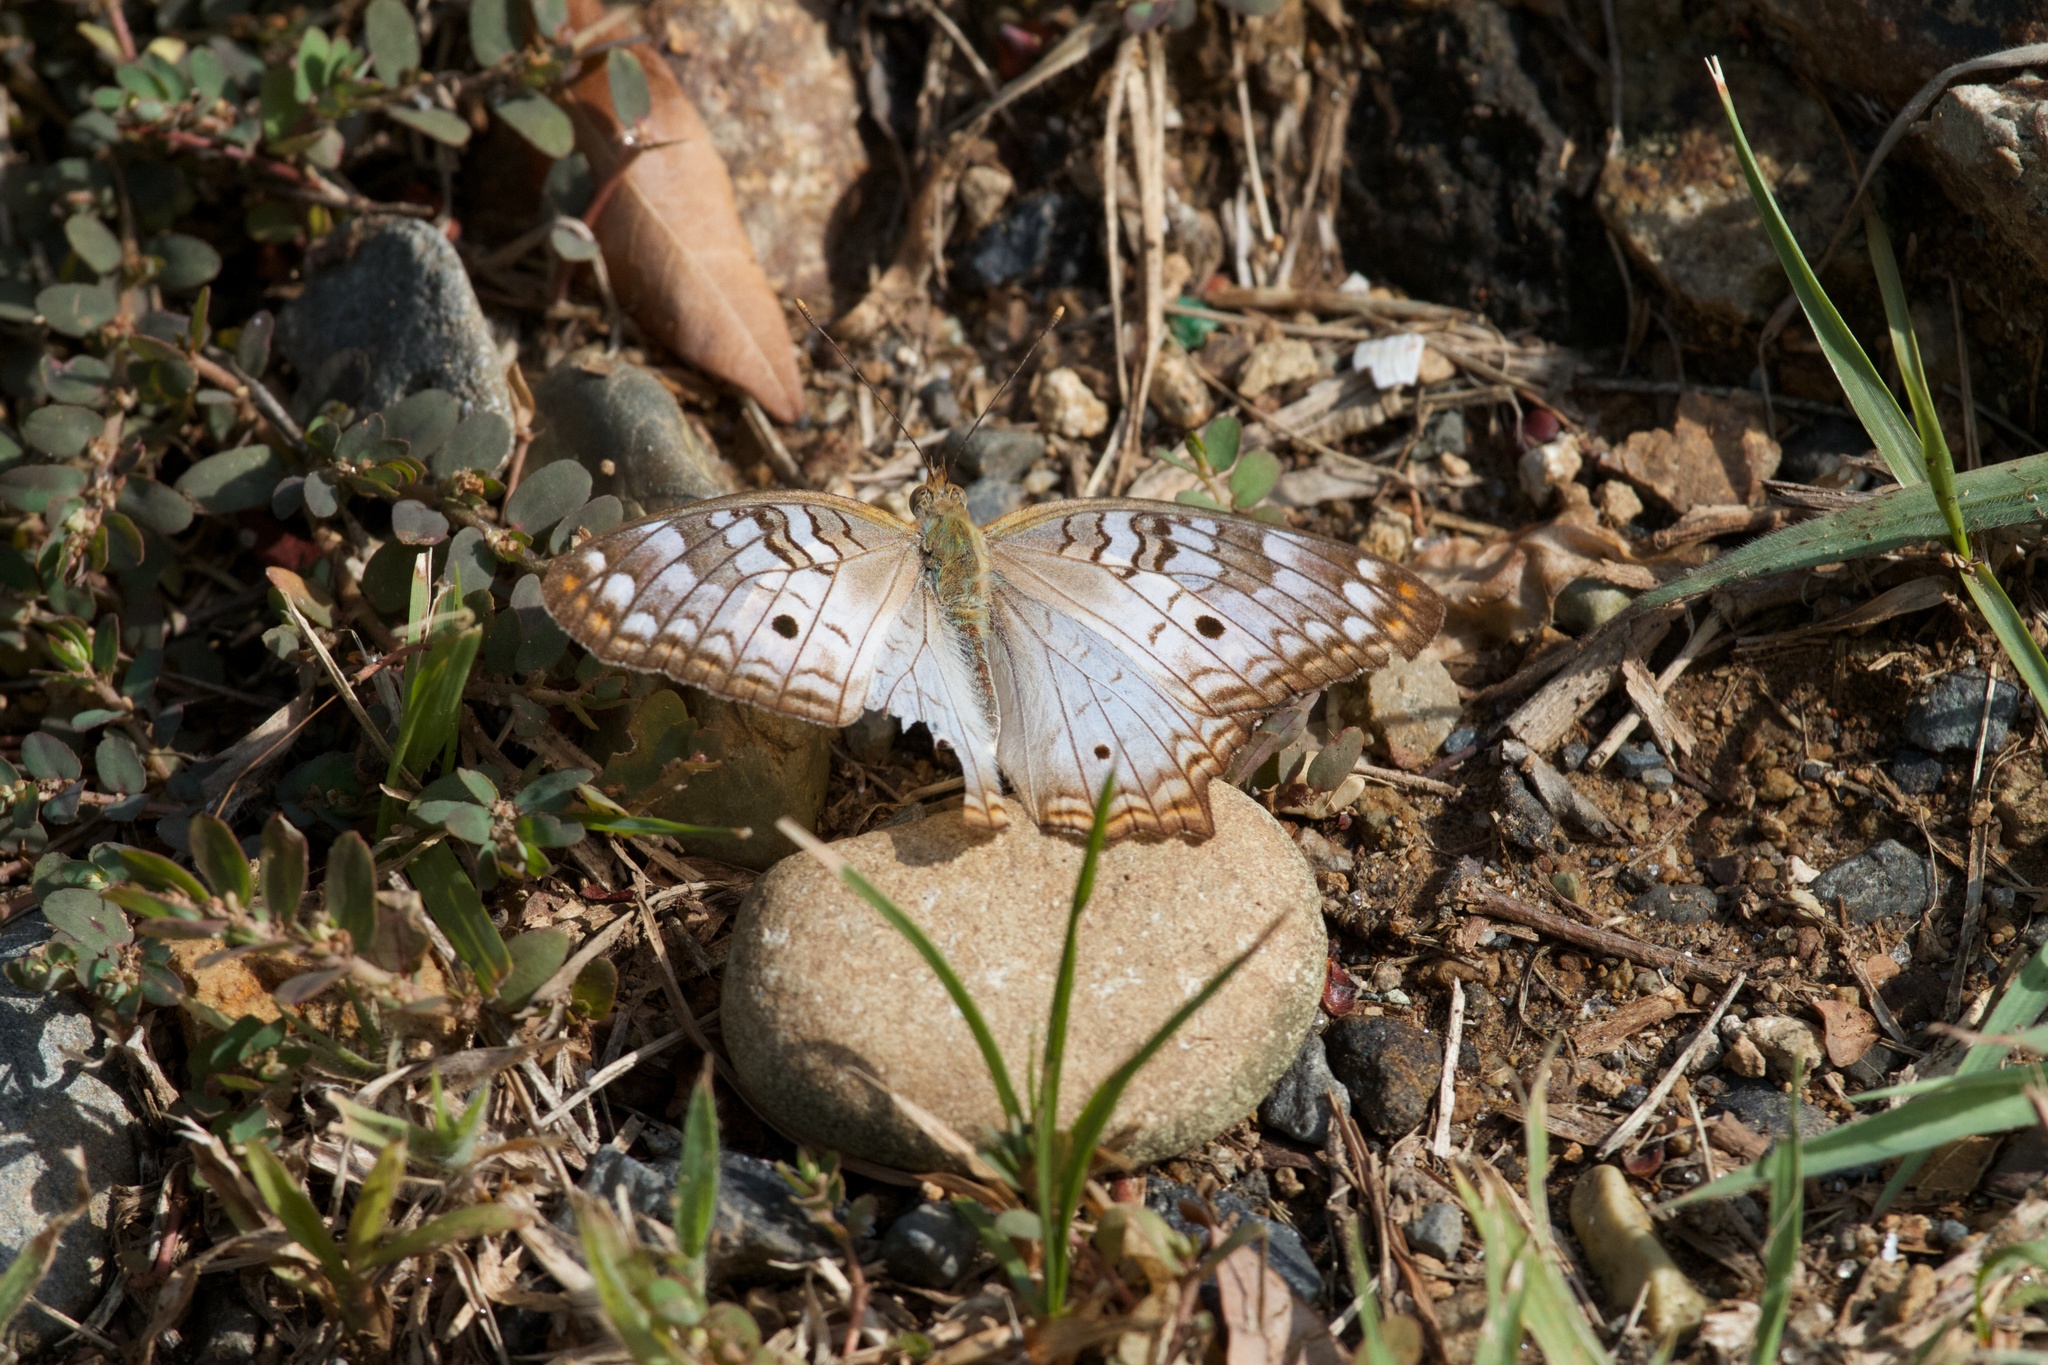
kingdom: Animalia
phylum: Arthropoda
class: Insecta
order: Lepidoptera
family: Nymphalidae
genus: Anartia
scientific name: Anartia jatrophae
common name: White peacock
